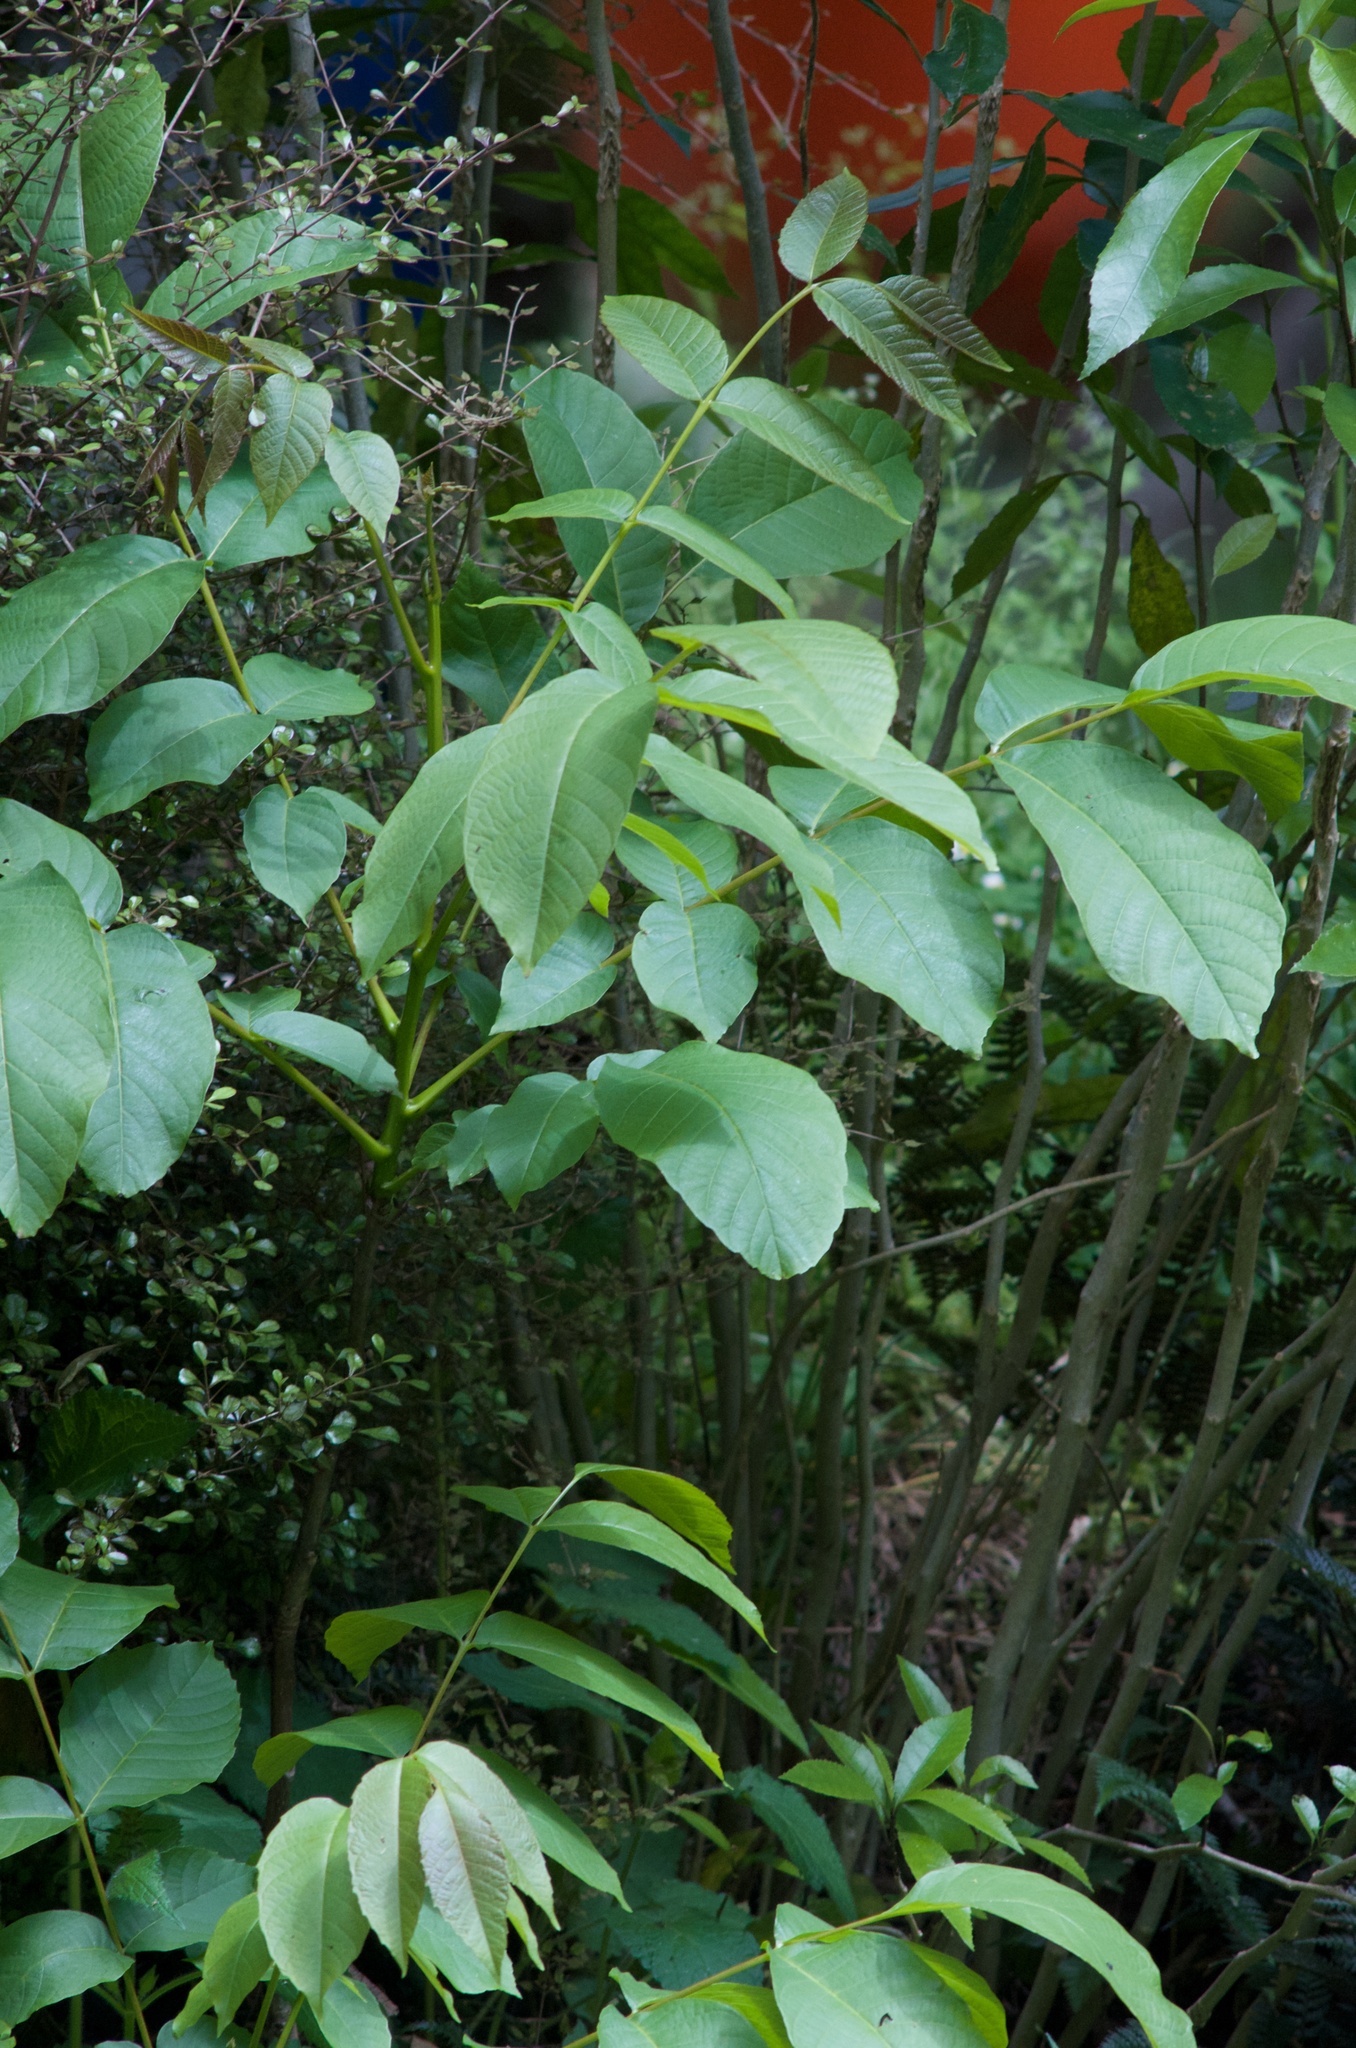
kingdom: Plantae
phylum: Tracheophyta
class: Magnoliopsida
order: Fagales
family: Juglandaceae
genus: Juglans
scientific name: Juglans regia
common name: Walnut
